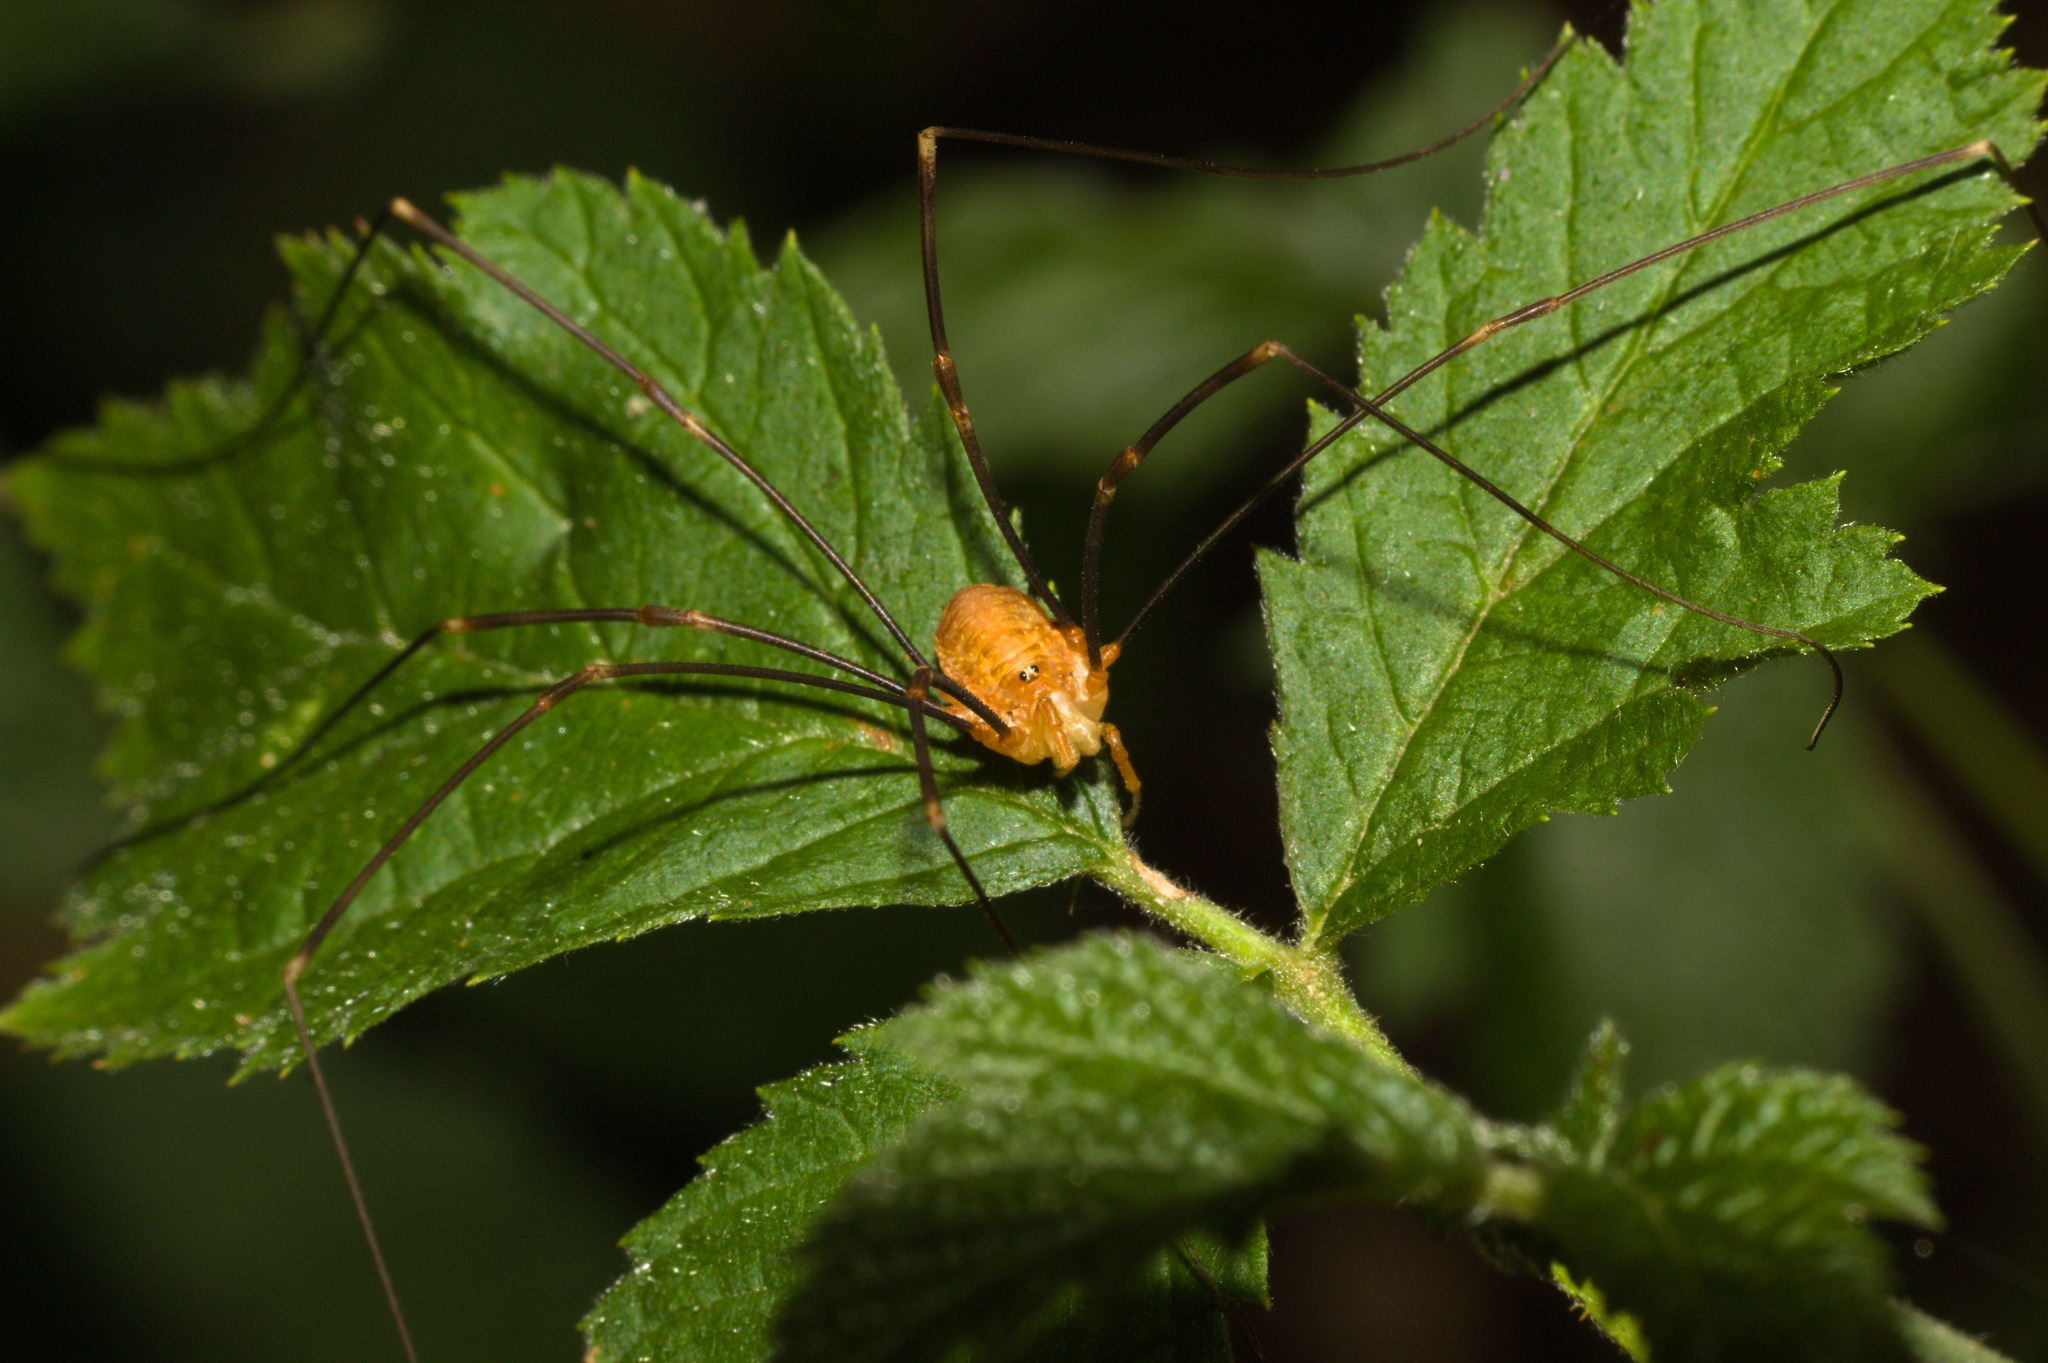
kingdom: Animalia
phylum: Arthropoda
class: Arachnida
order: Opiliones
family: Phalangiidae
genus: Opilio
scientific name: Opilio canestrinii
